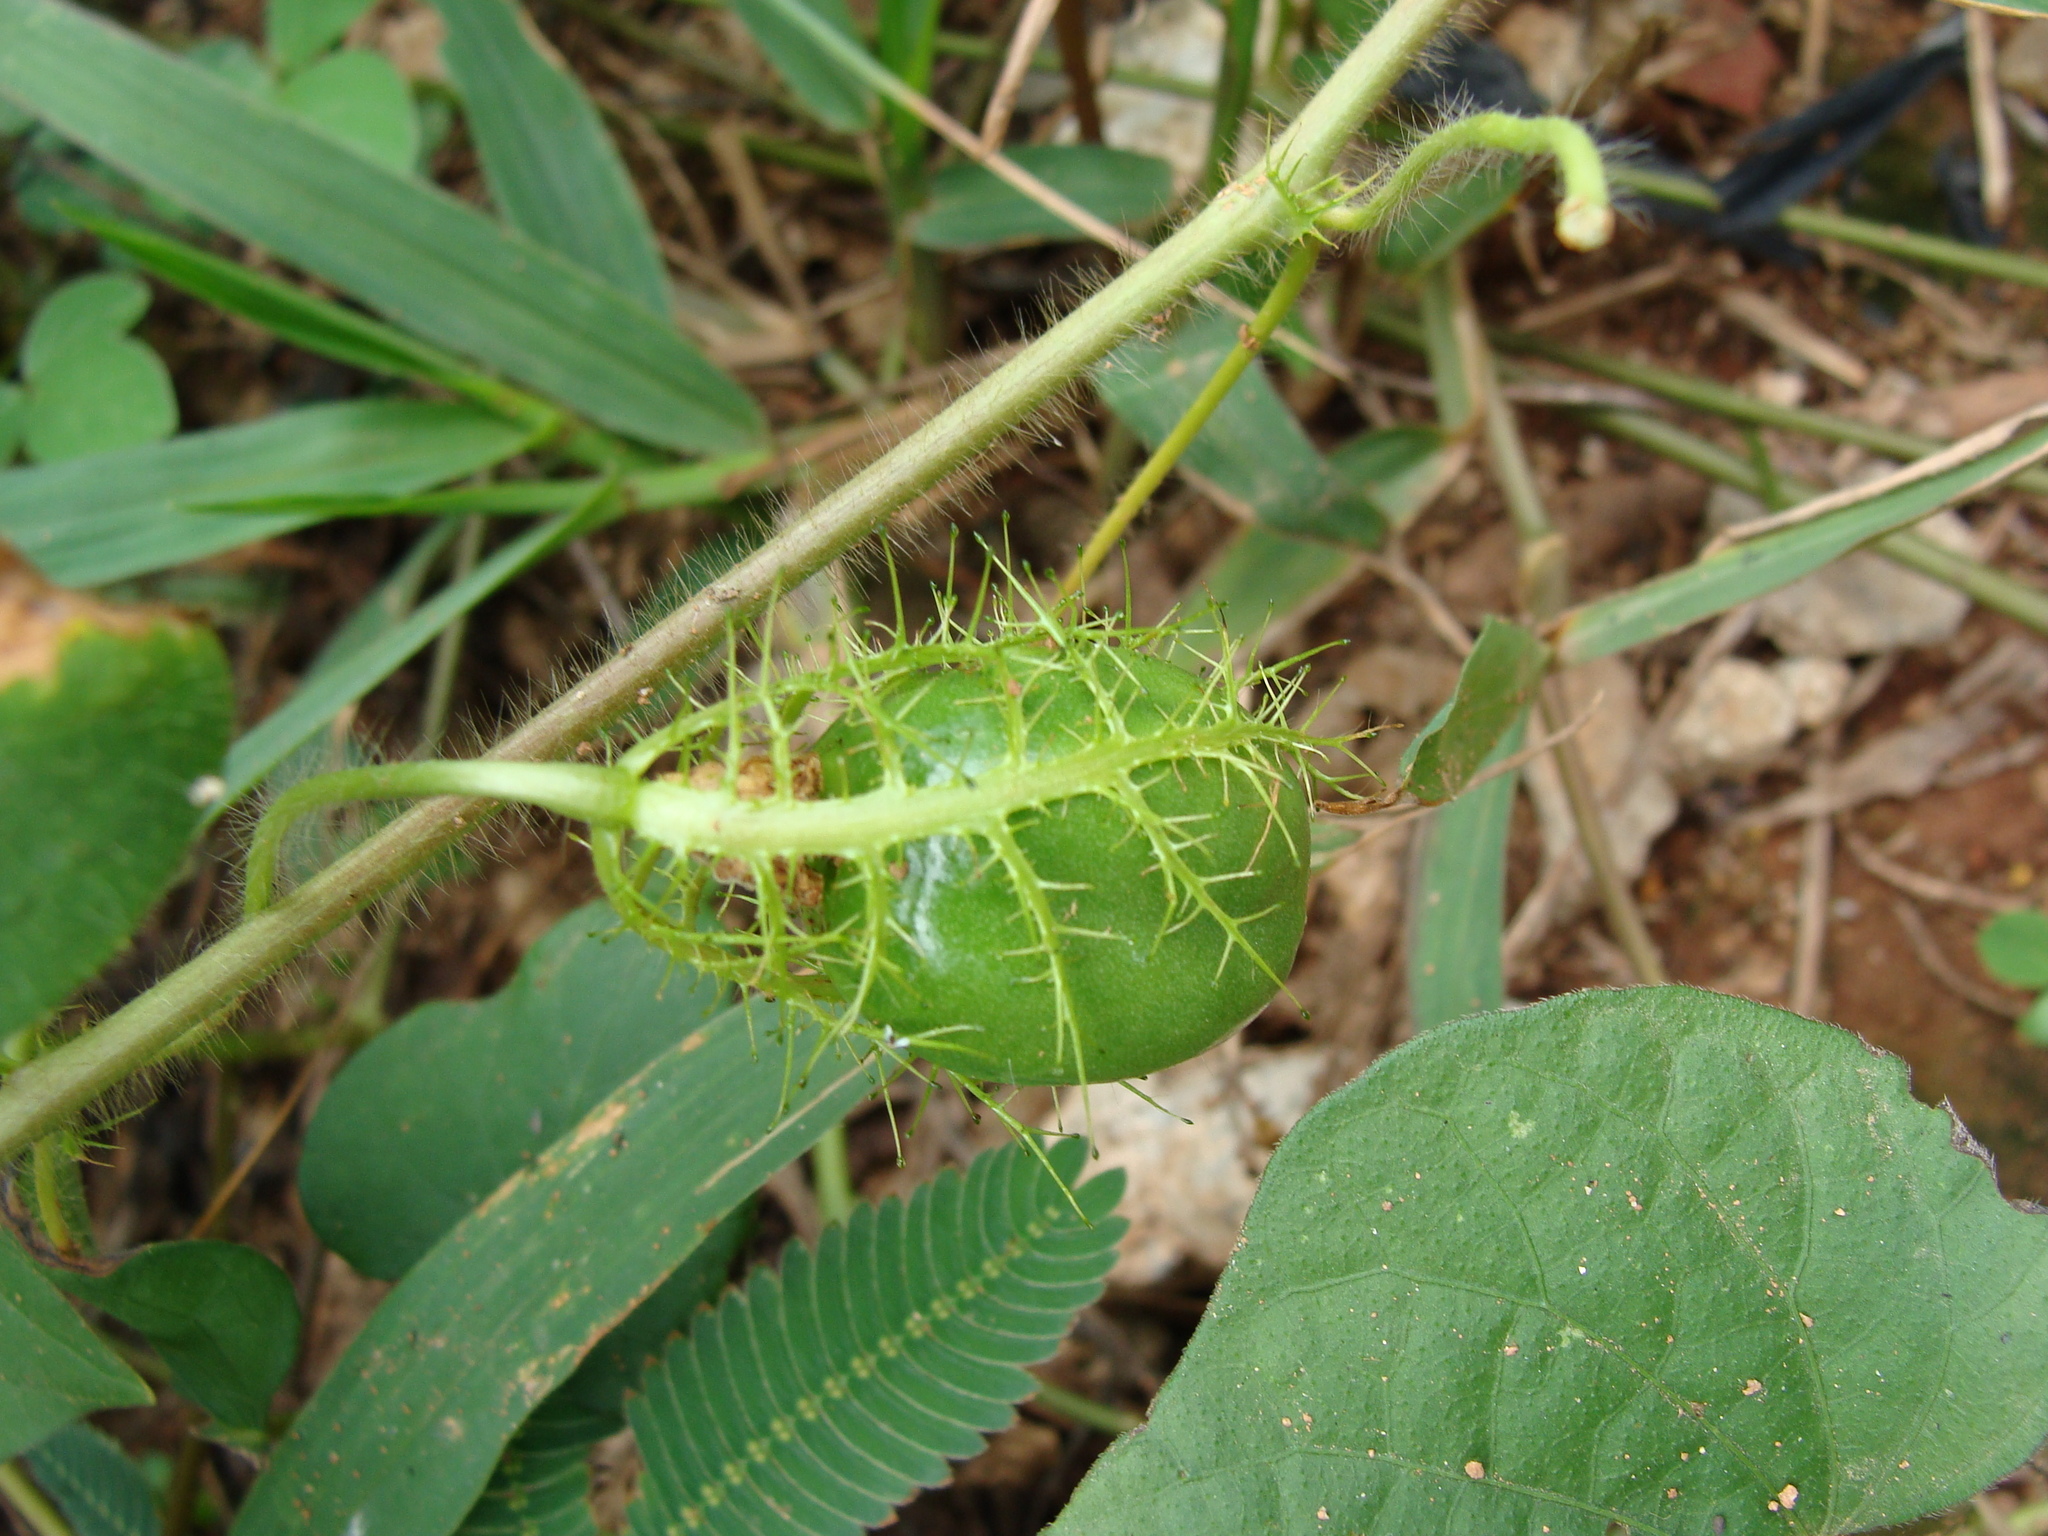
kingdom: Plantae
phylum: Tracheophyta
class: Magnoliopsida
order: Malpighiales
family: Passifloraceae
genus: Passiflora
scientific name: Passiflora foetida
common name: Fetid passionflower
